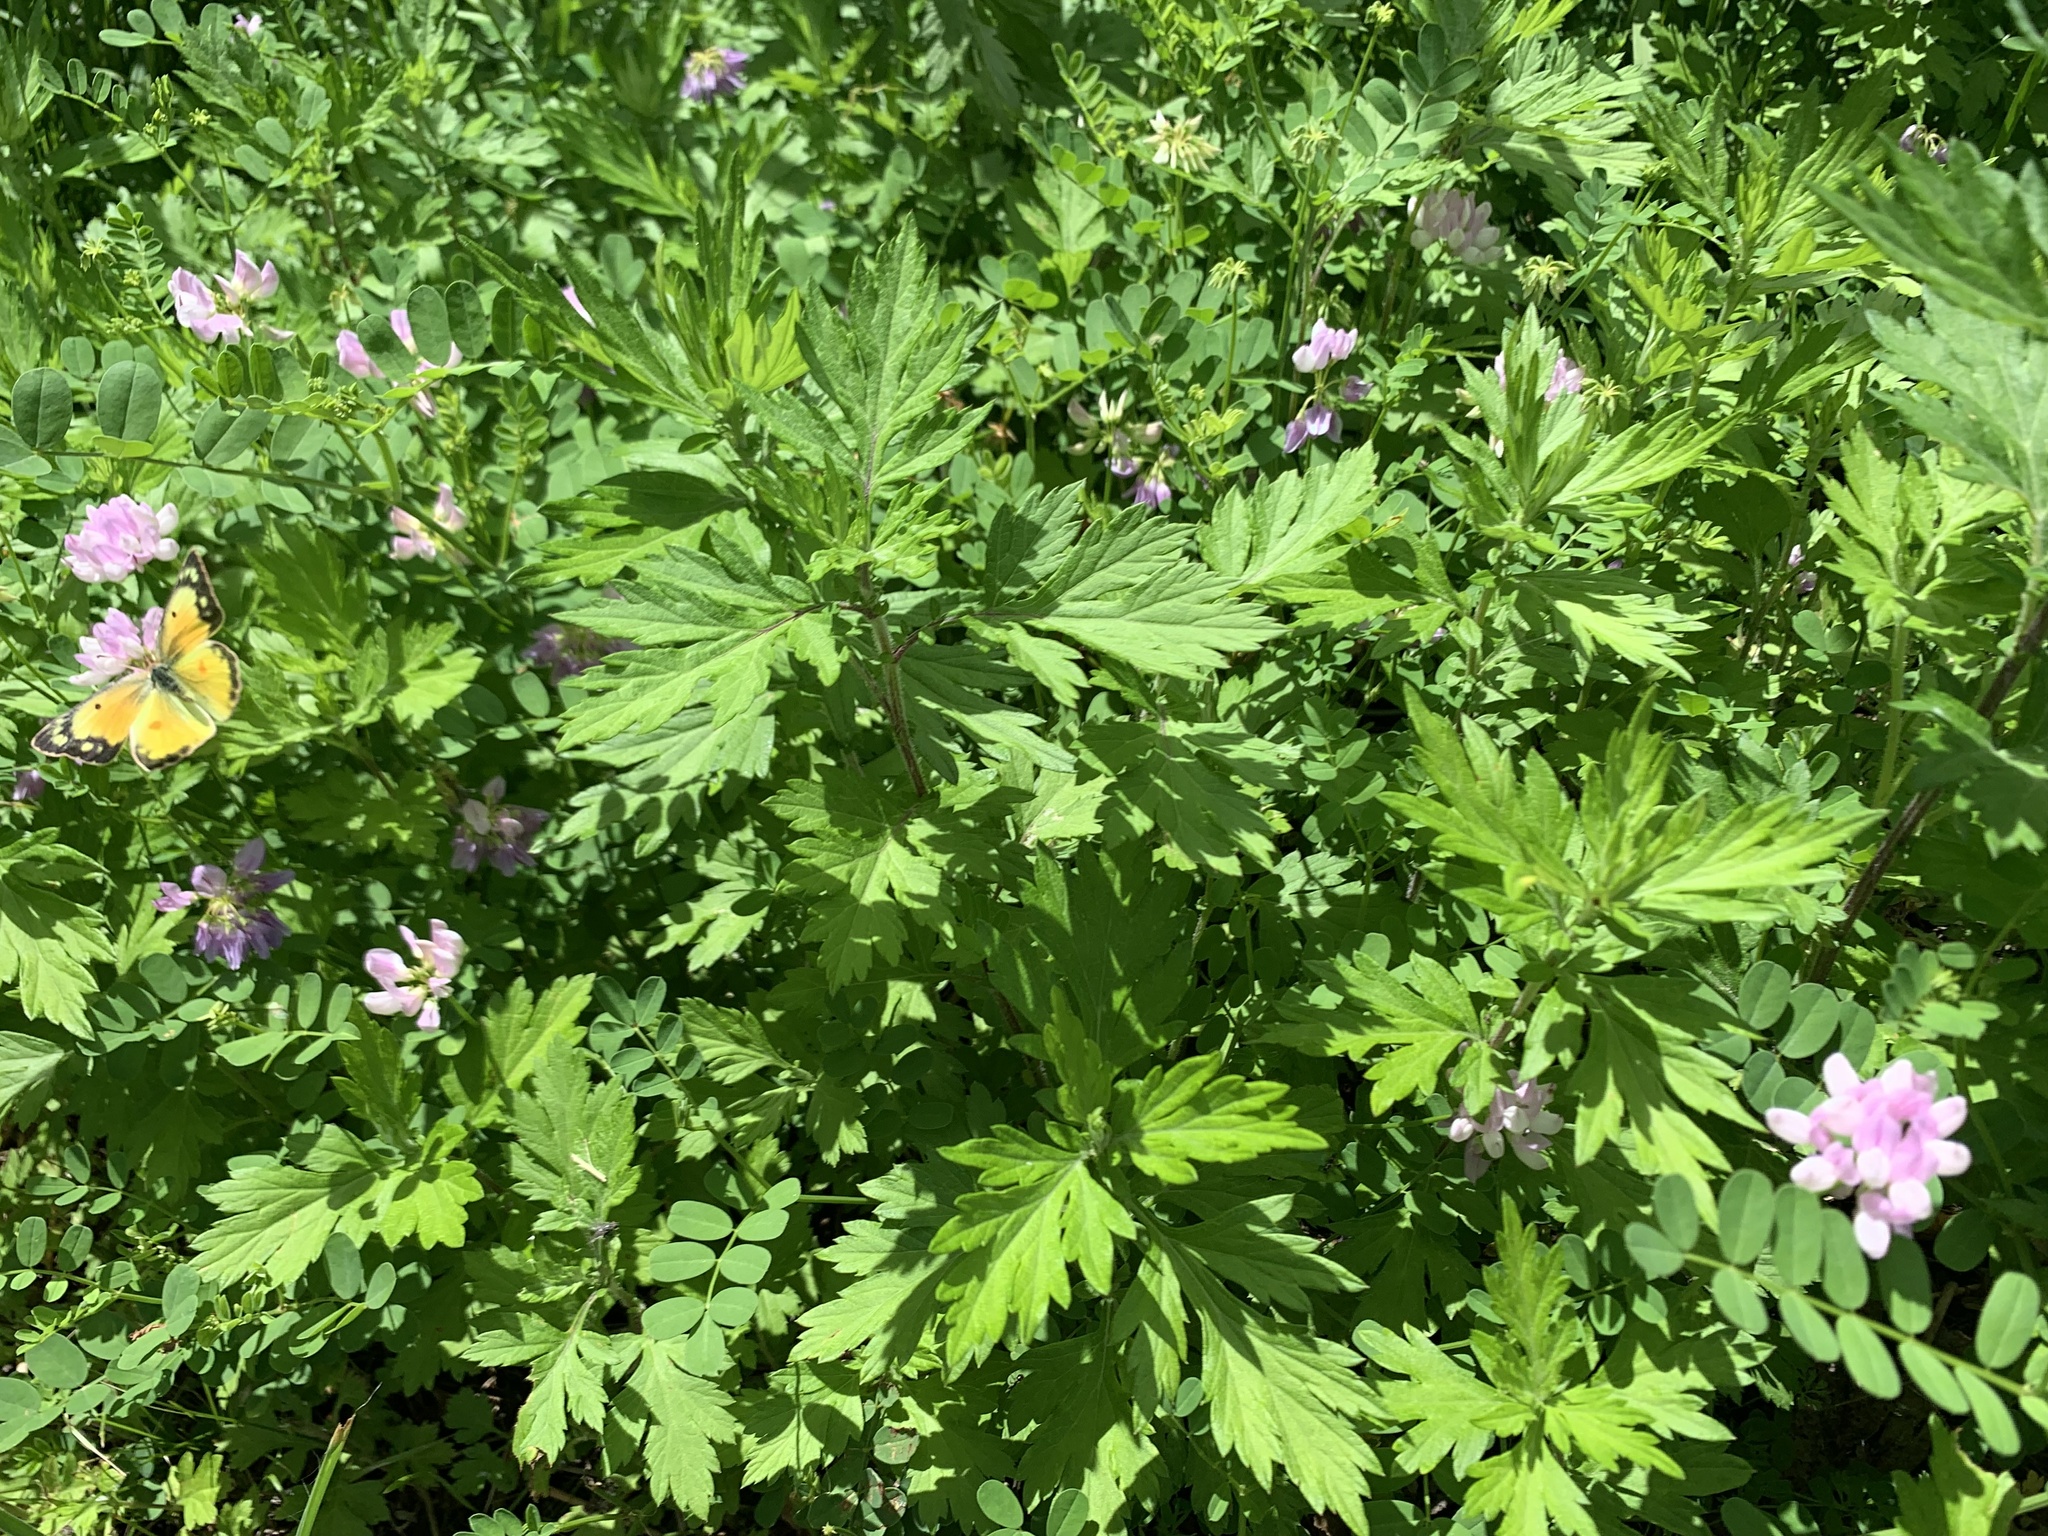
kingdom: Animalia
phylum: Arthropoda
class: Insecta
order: Lepidoptera
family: Pieridae
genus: Colias
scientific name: Colias eurytheme
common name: Alfalfa butterfly
